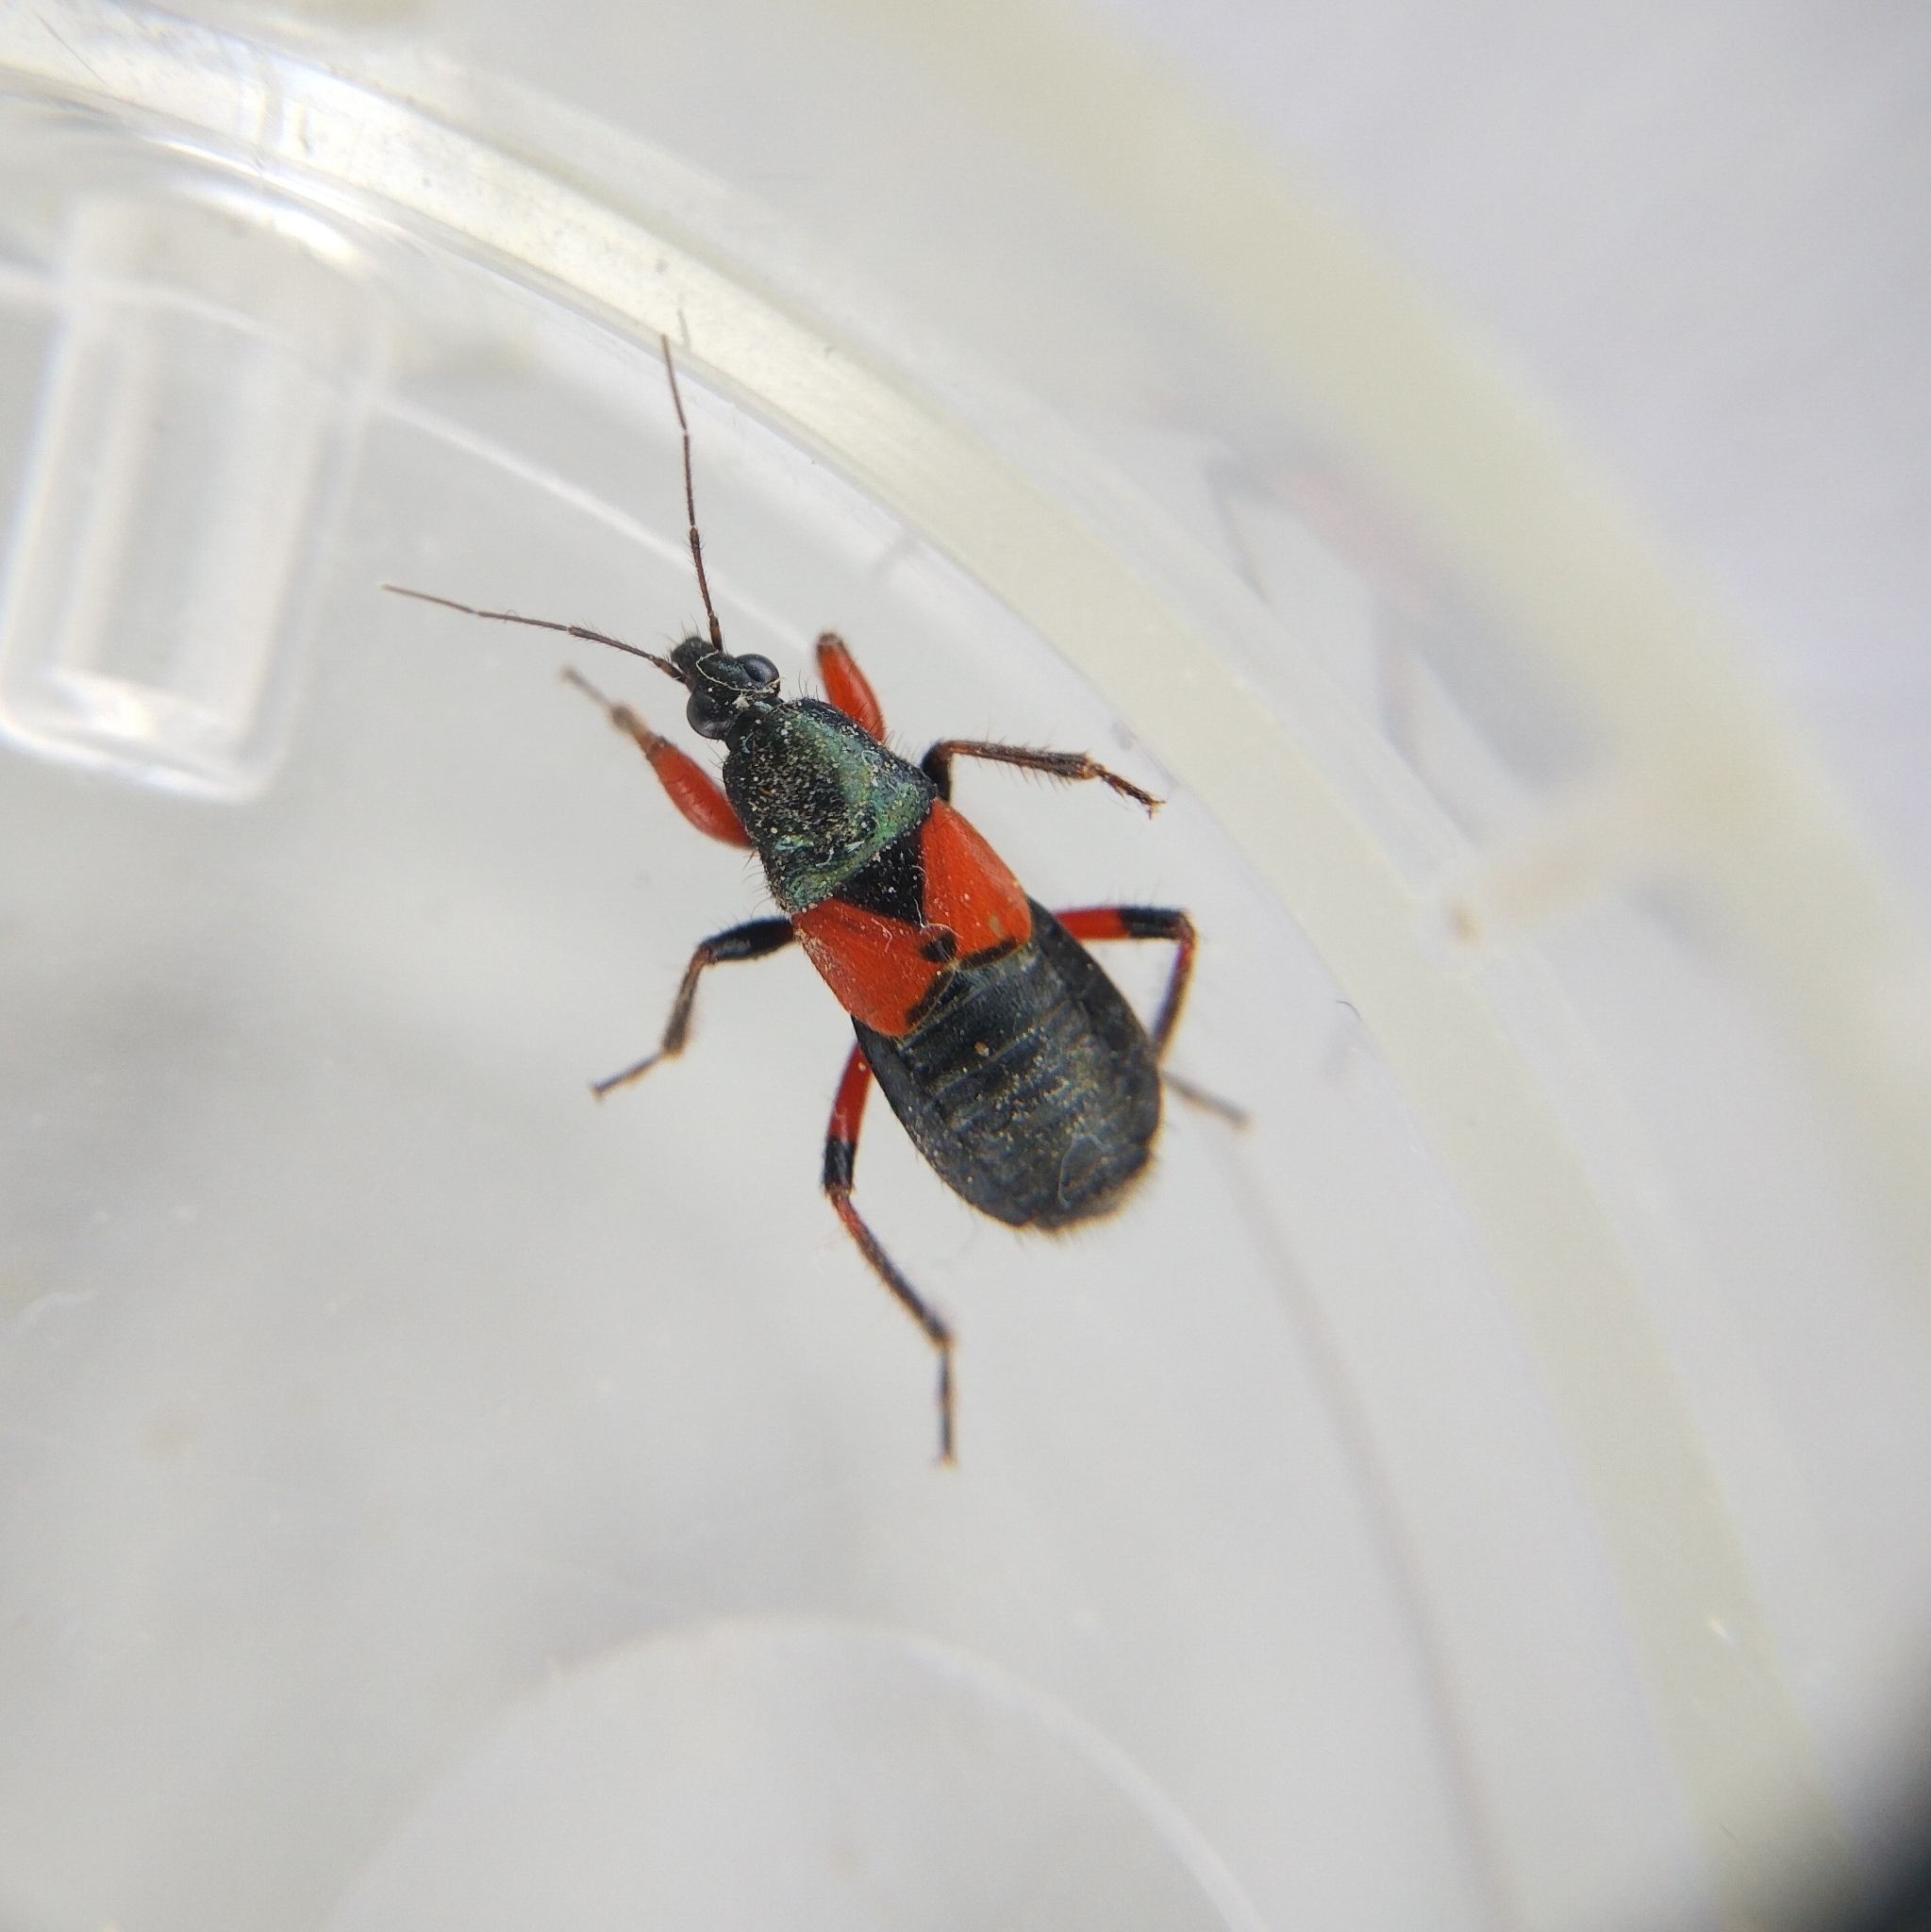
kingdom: Animalia
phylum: Arthropoda
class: Insecta
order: Hemiptera
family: Nabidae
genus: Prostemma
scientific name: Prostemma aeneicolle
